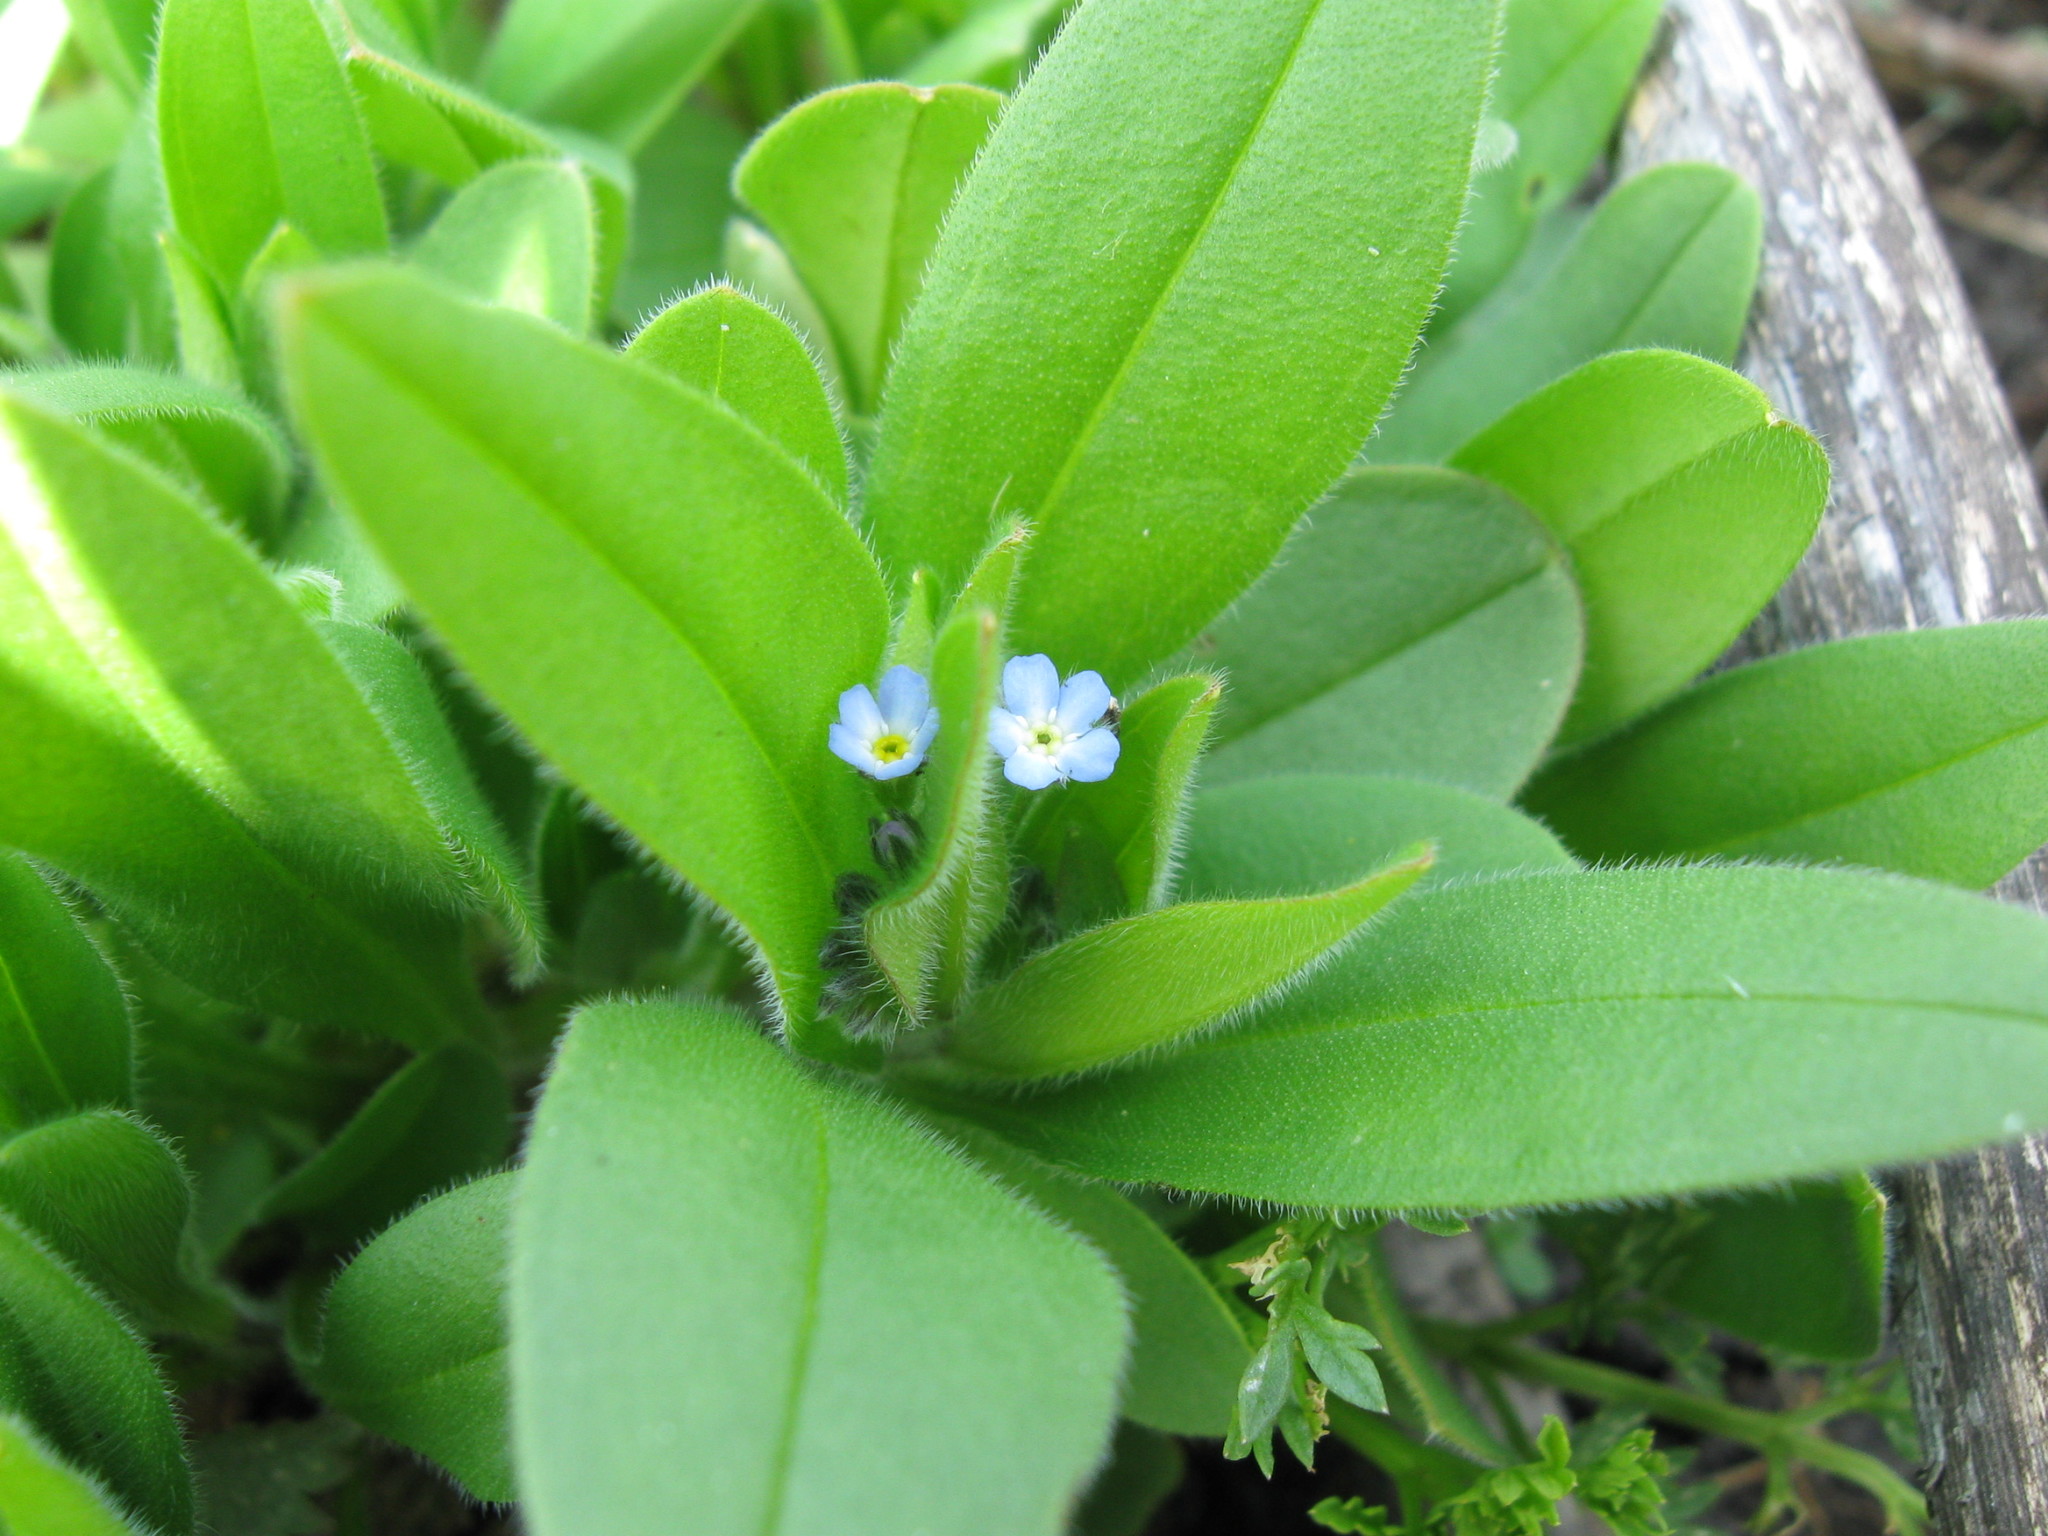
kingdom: Plantae
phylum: Tracheophyta
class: Magnoliopsida
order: Boraginales
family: Boraginaceae
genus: Myosotis
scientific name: Myosotis sparsiflora
